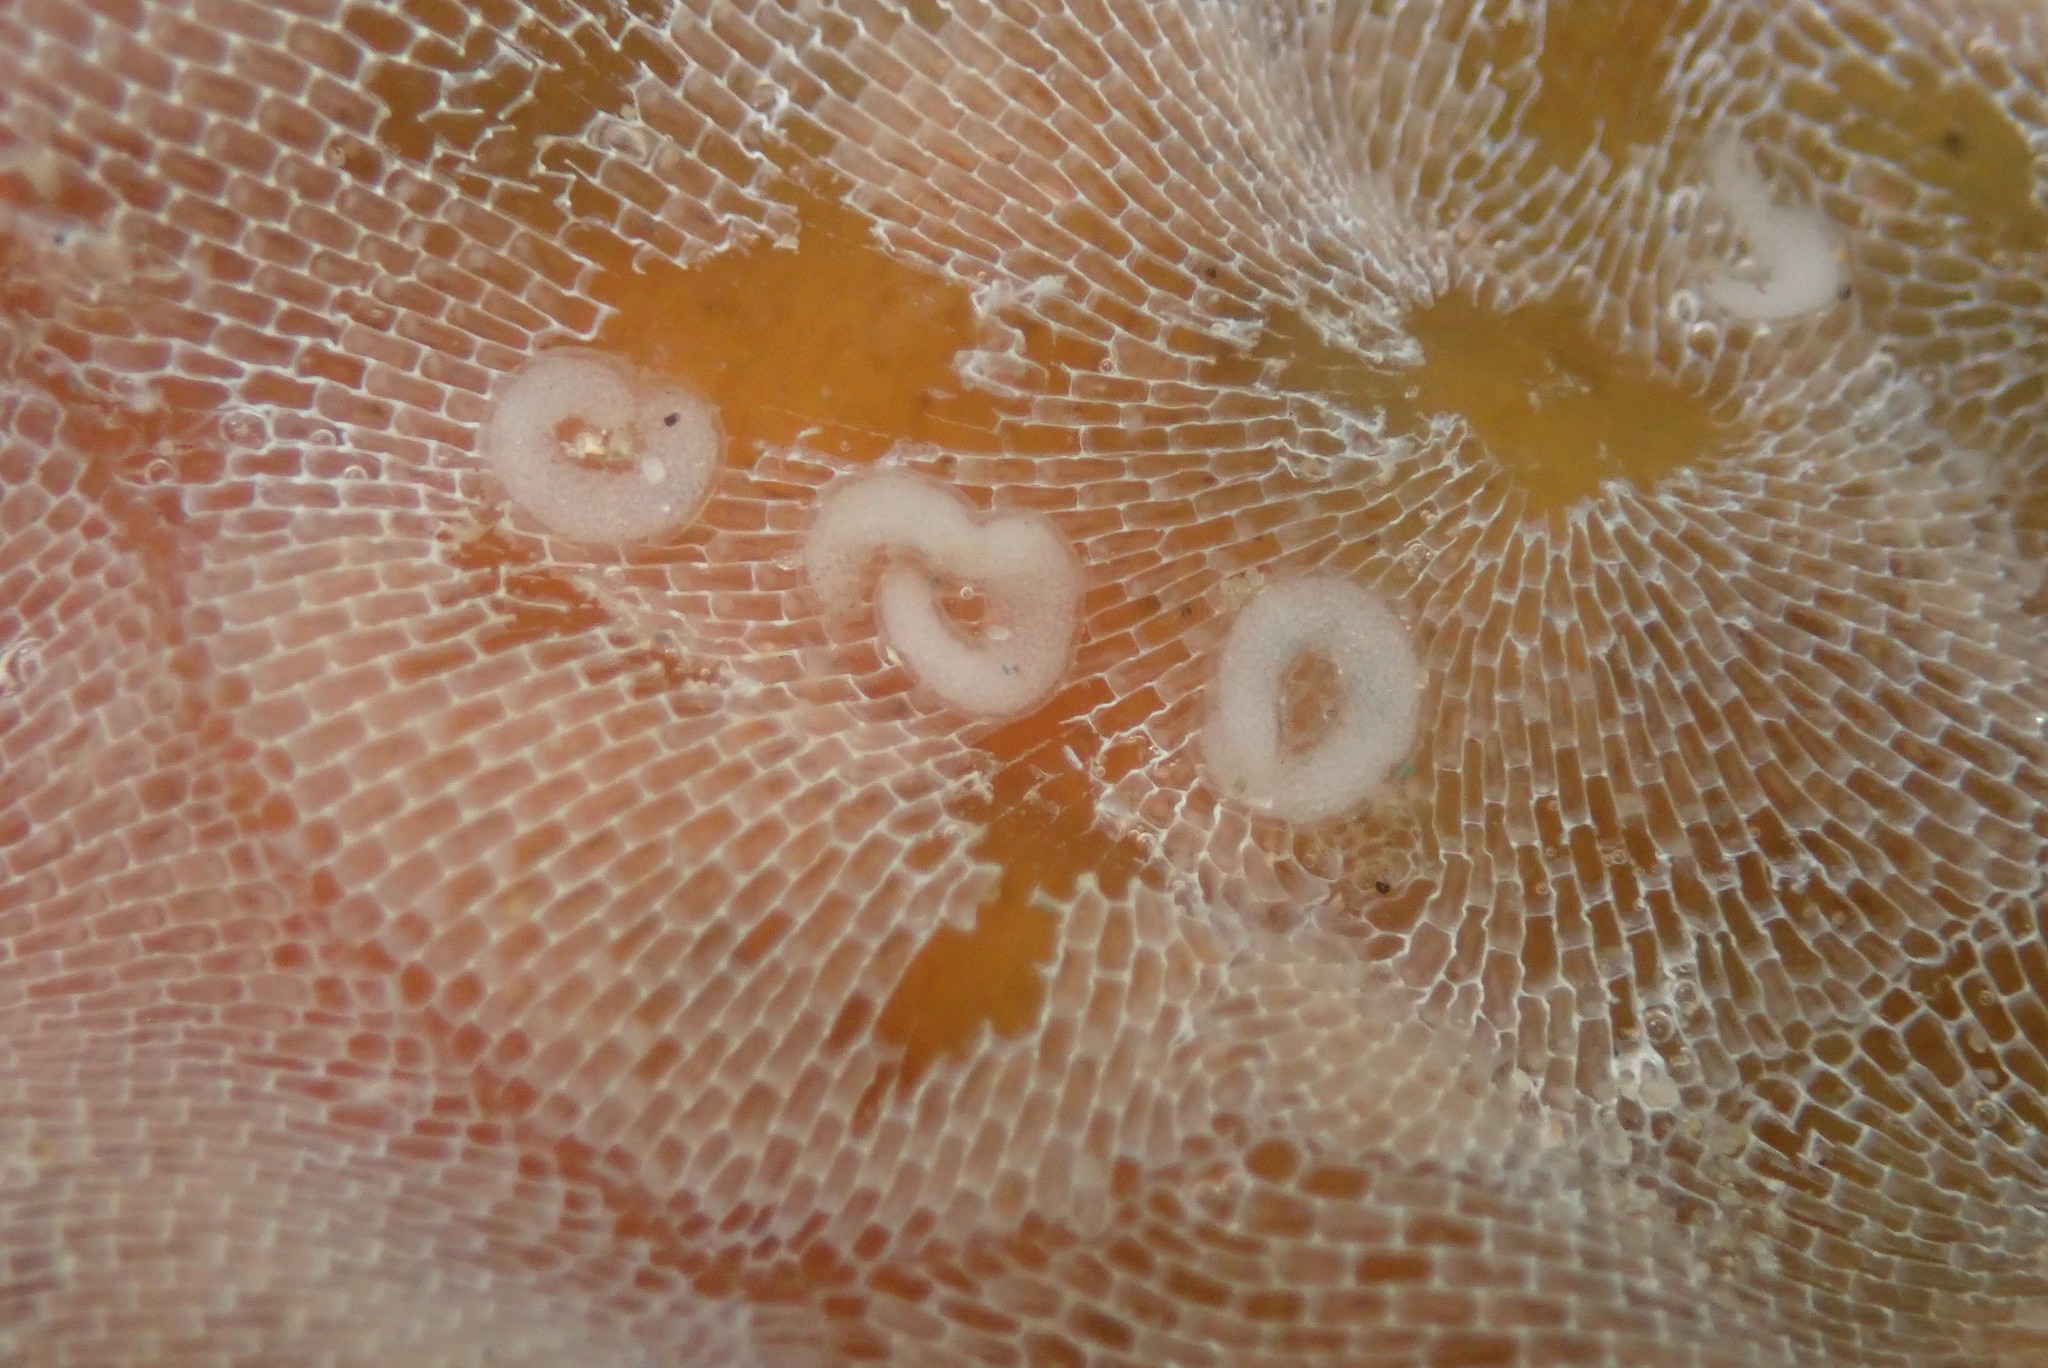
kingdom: Animalia
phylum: Mollusca
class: Gastropoda
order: Nudibranchia
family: Corambidae
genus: Corambe
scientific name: Corambe steinbergae
